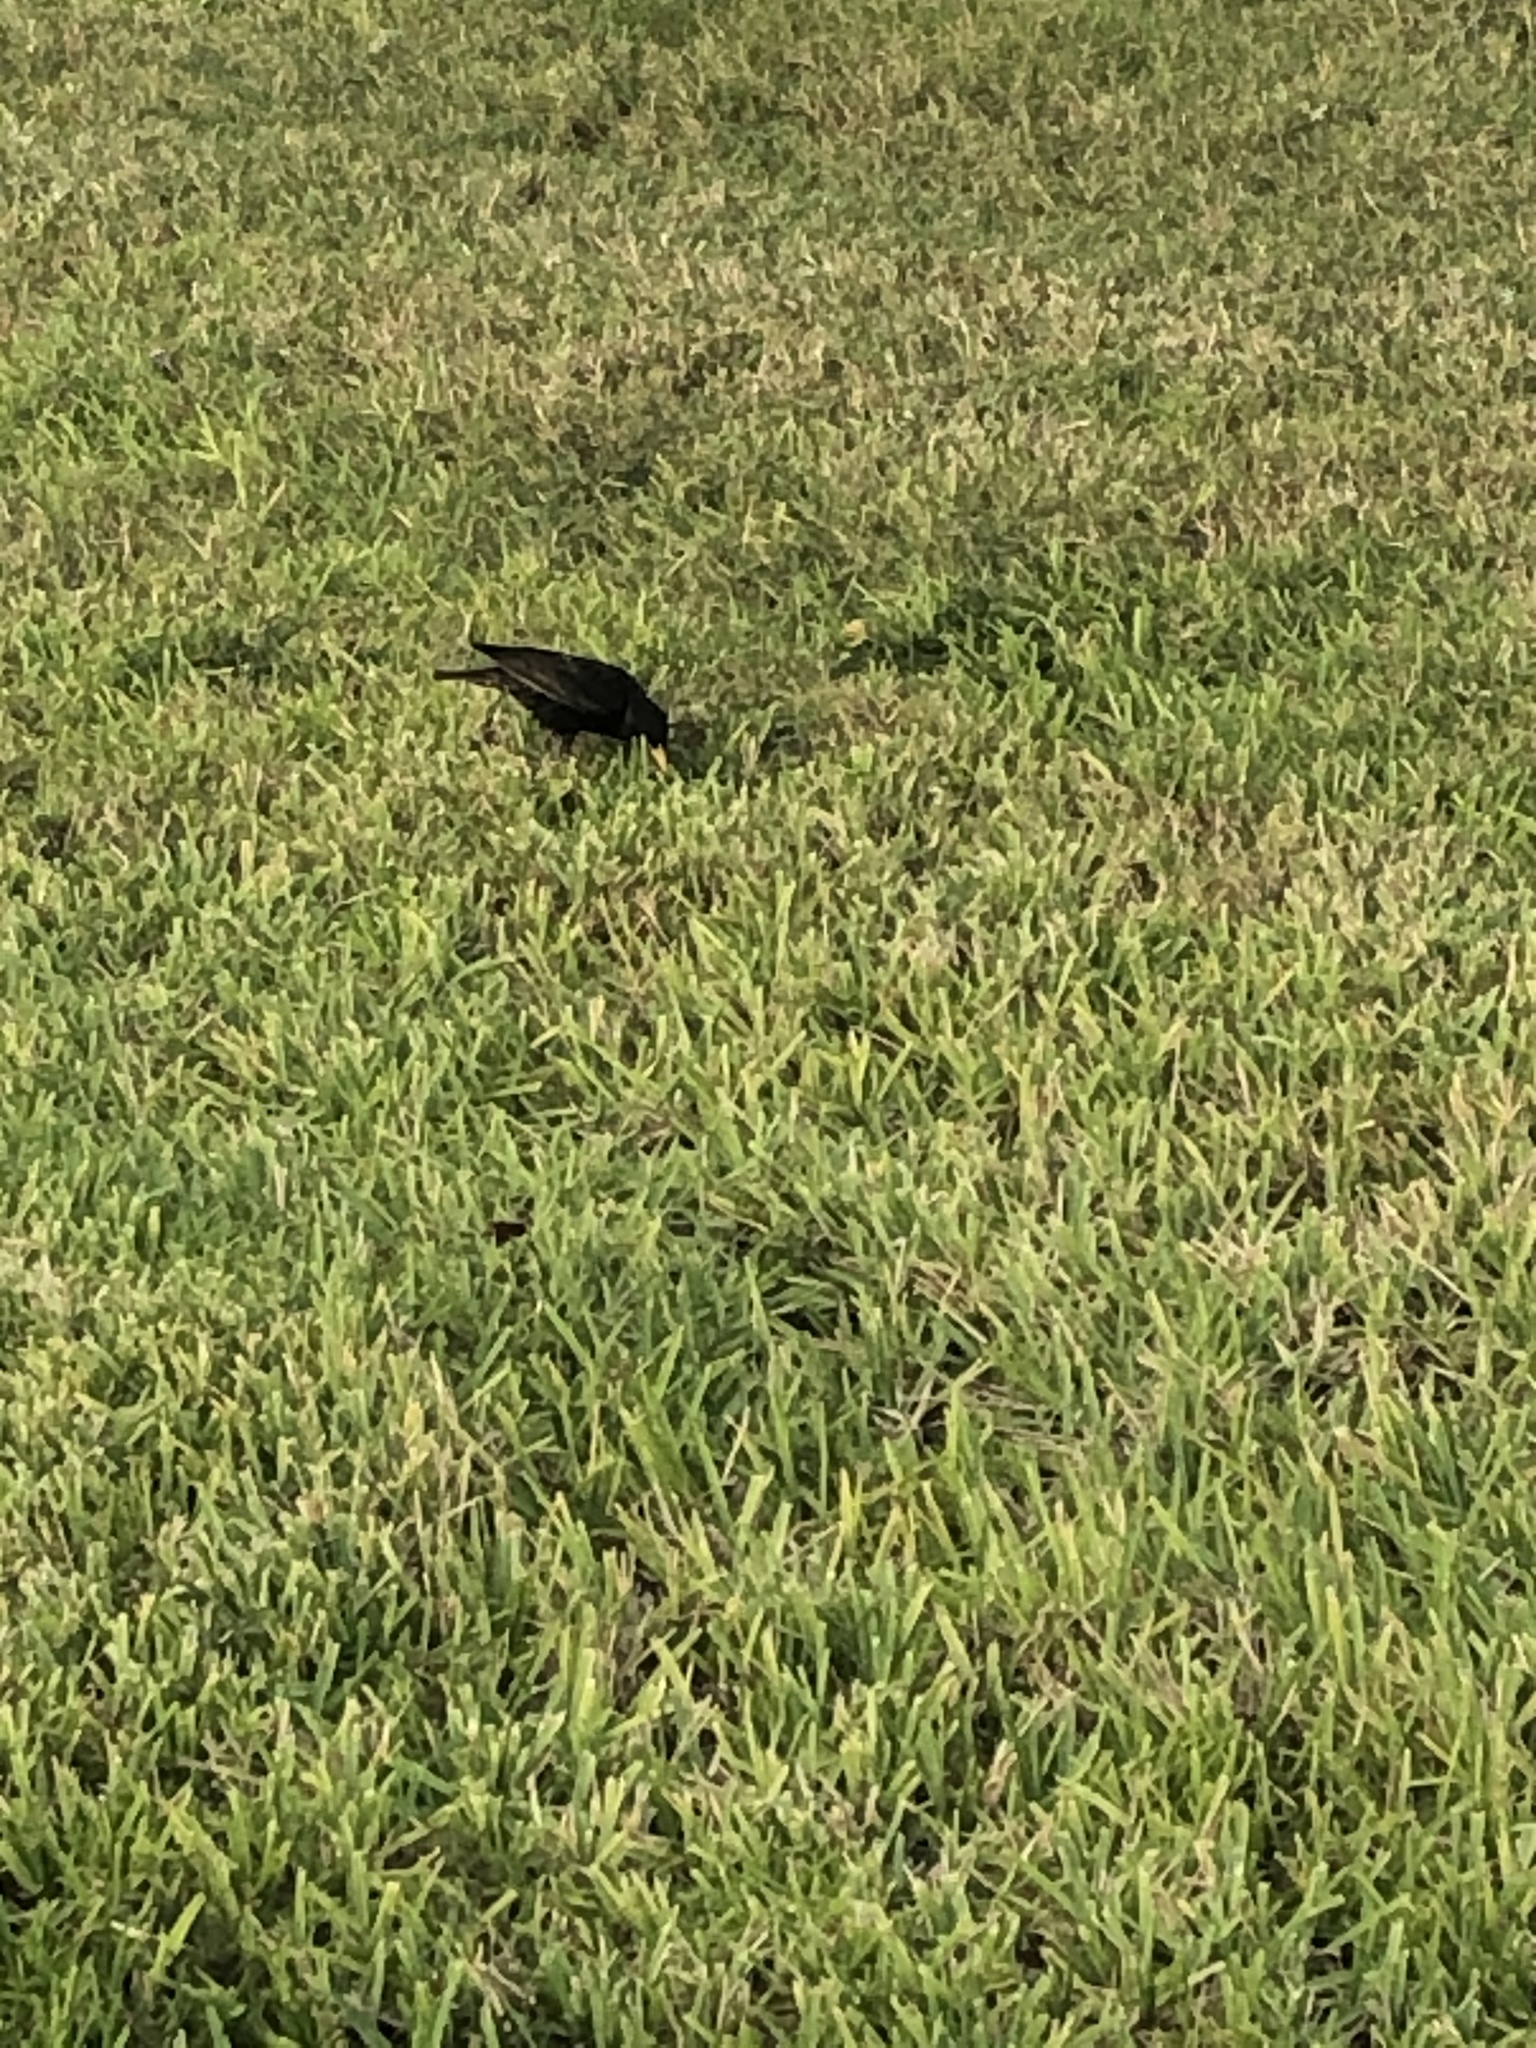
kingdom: Animalia
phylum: Chordata
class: Aves
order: Passeriformes
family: Sturnidae
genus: Sturnus
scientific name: Sturnus vulgaris
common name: Common starling
